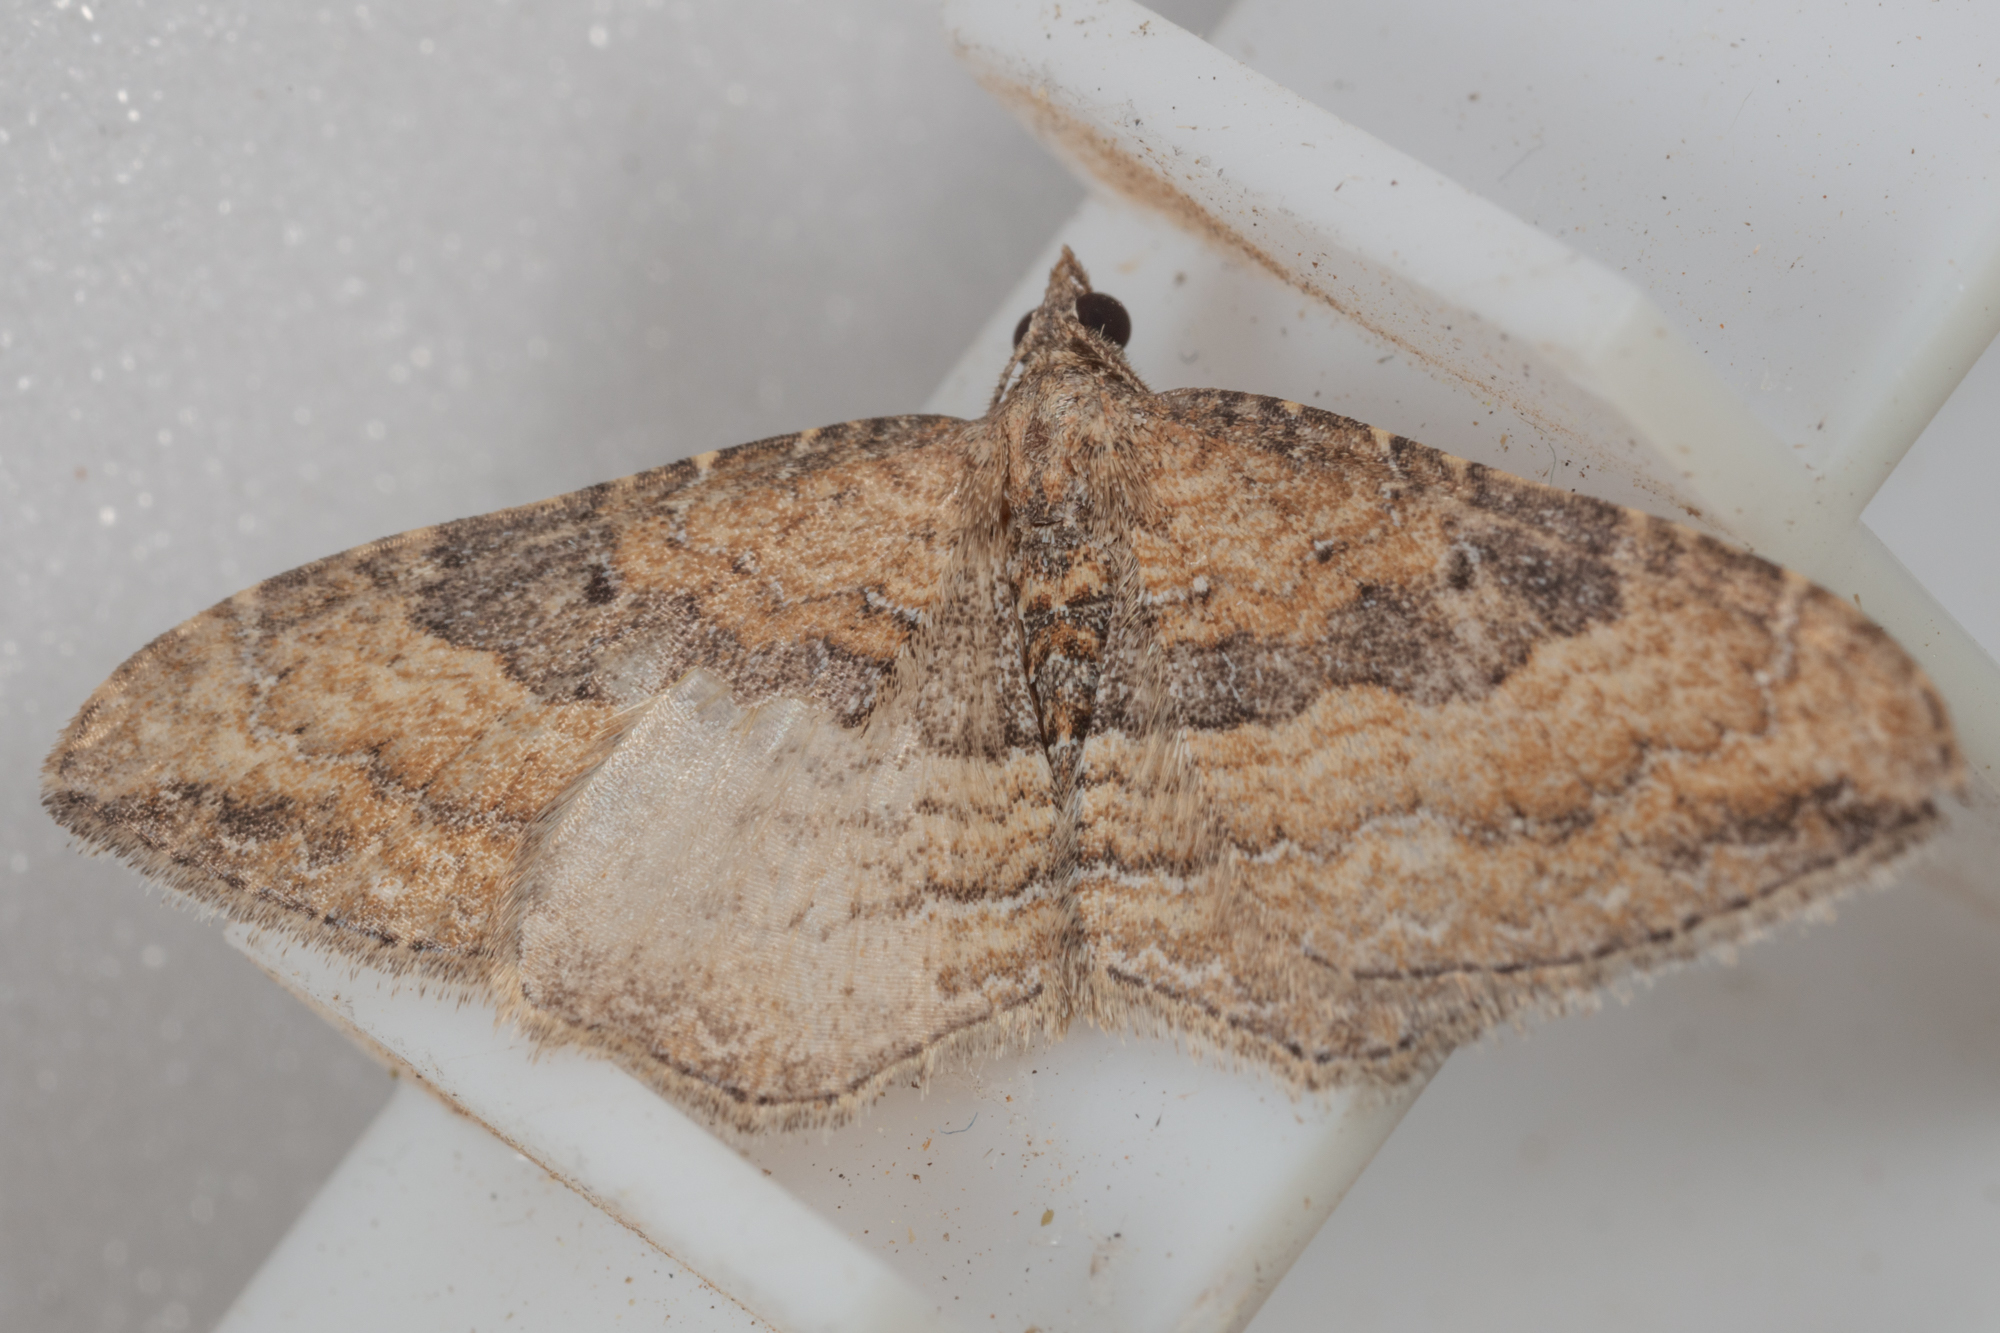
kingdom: Animalia
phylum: Arthropoda
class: Insecta
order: Lepidoptera
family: Geometridae
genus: Orthonama
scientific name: Orthonama obstipata
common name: The gem
